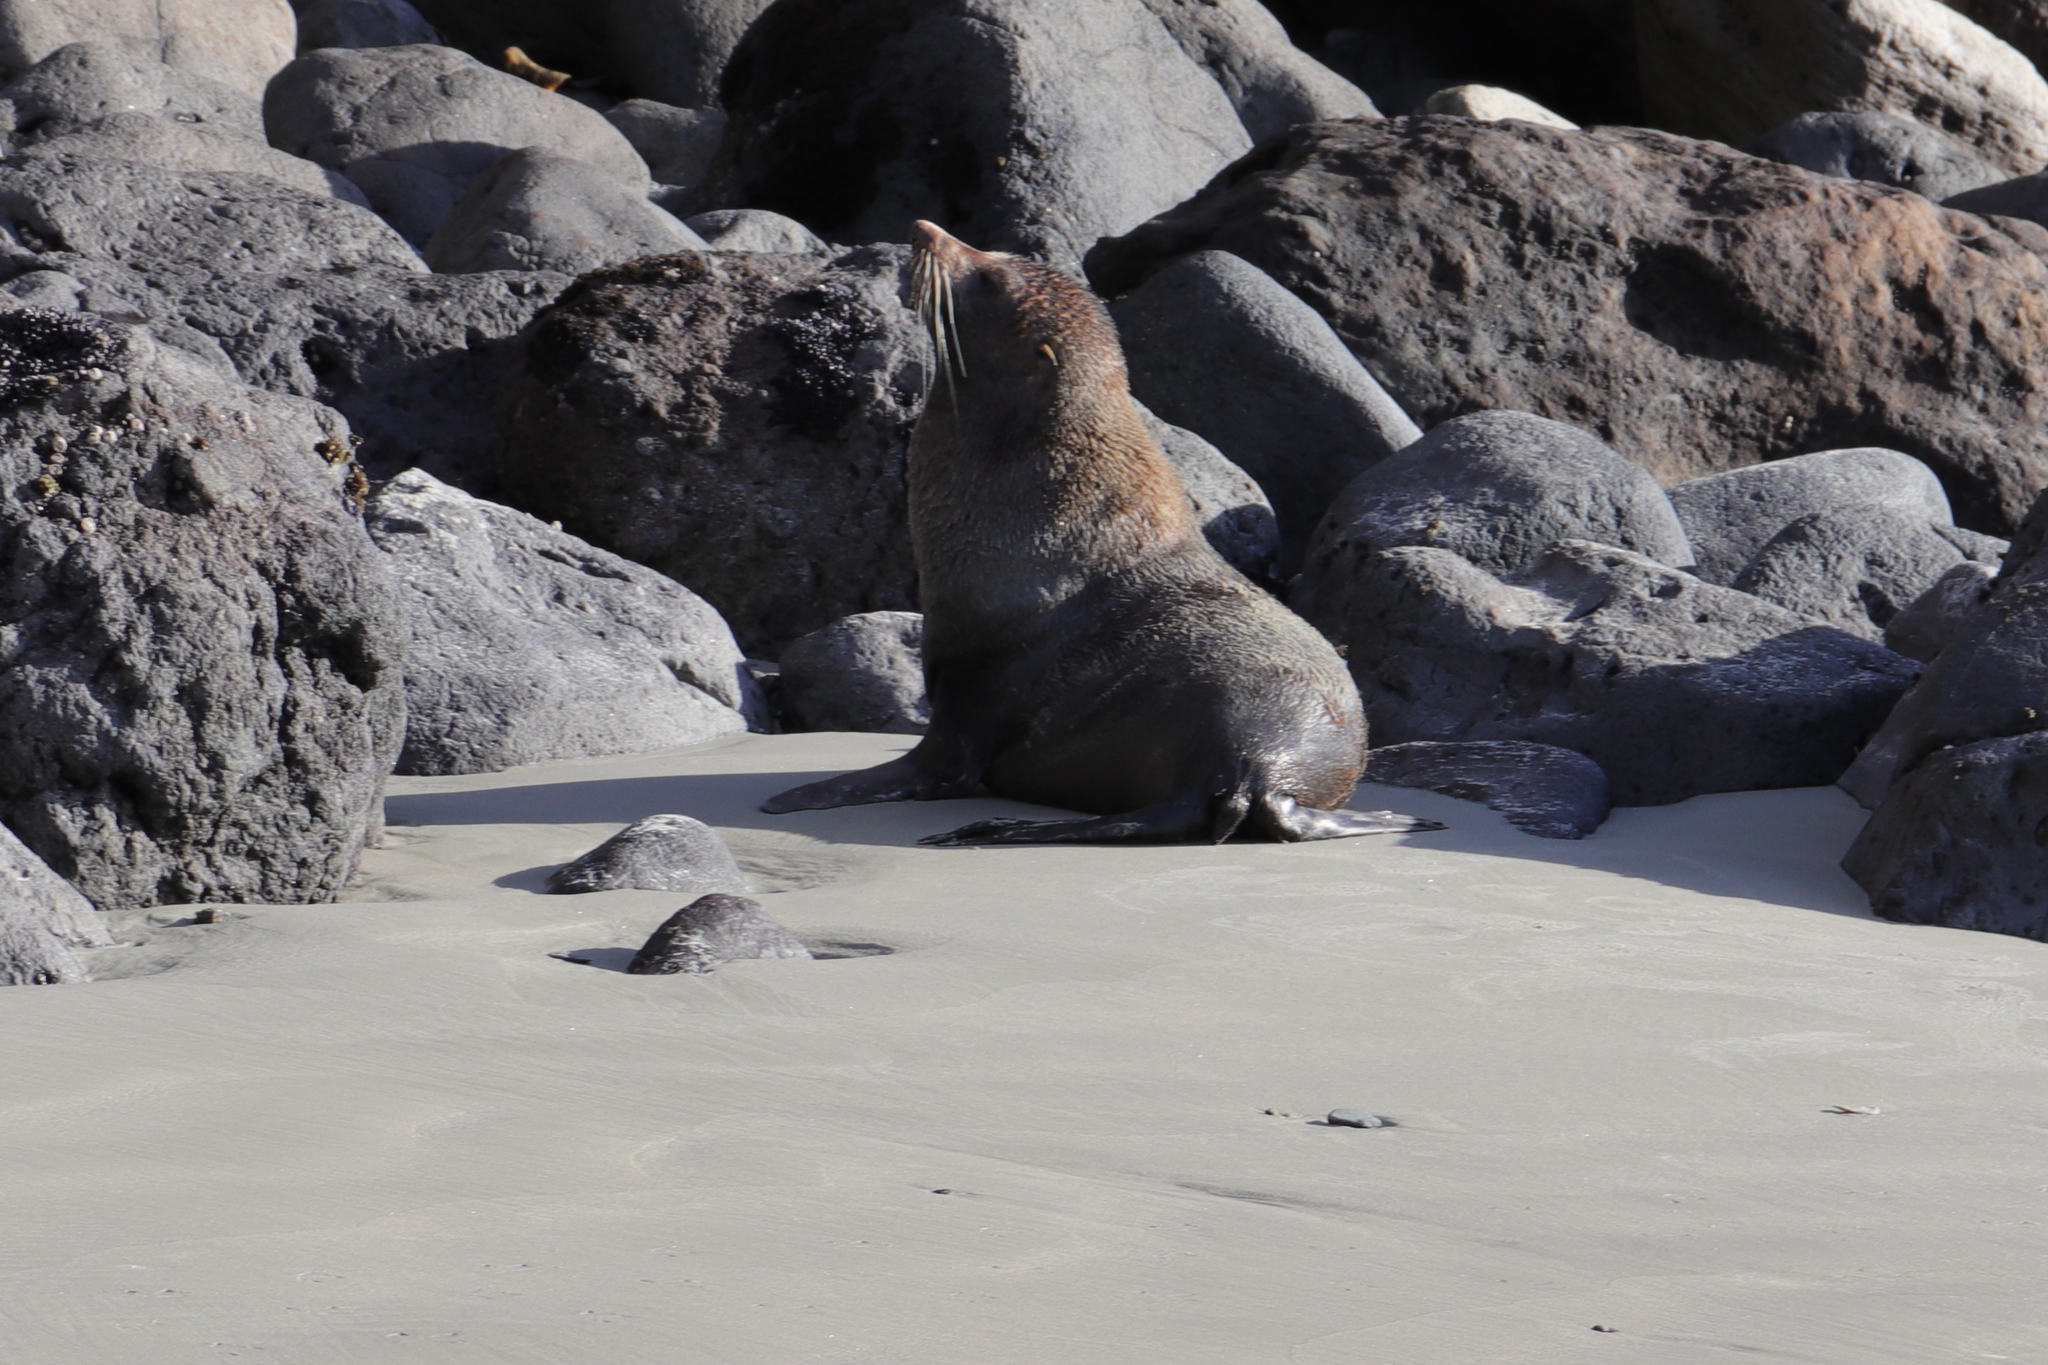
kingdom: Animalia
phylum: Chordata
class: Mammalia
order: Carnivora
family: Otariidae
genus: Arctocephalus
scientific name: Arctocephalus forsteri
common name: New zealand fur seal
